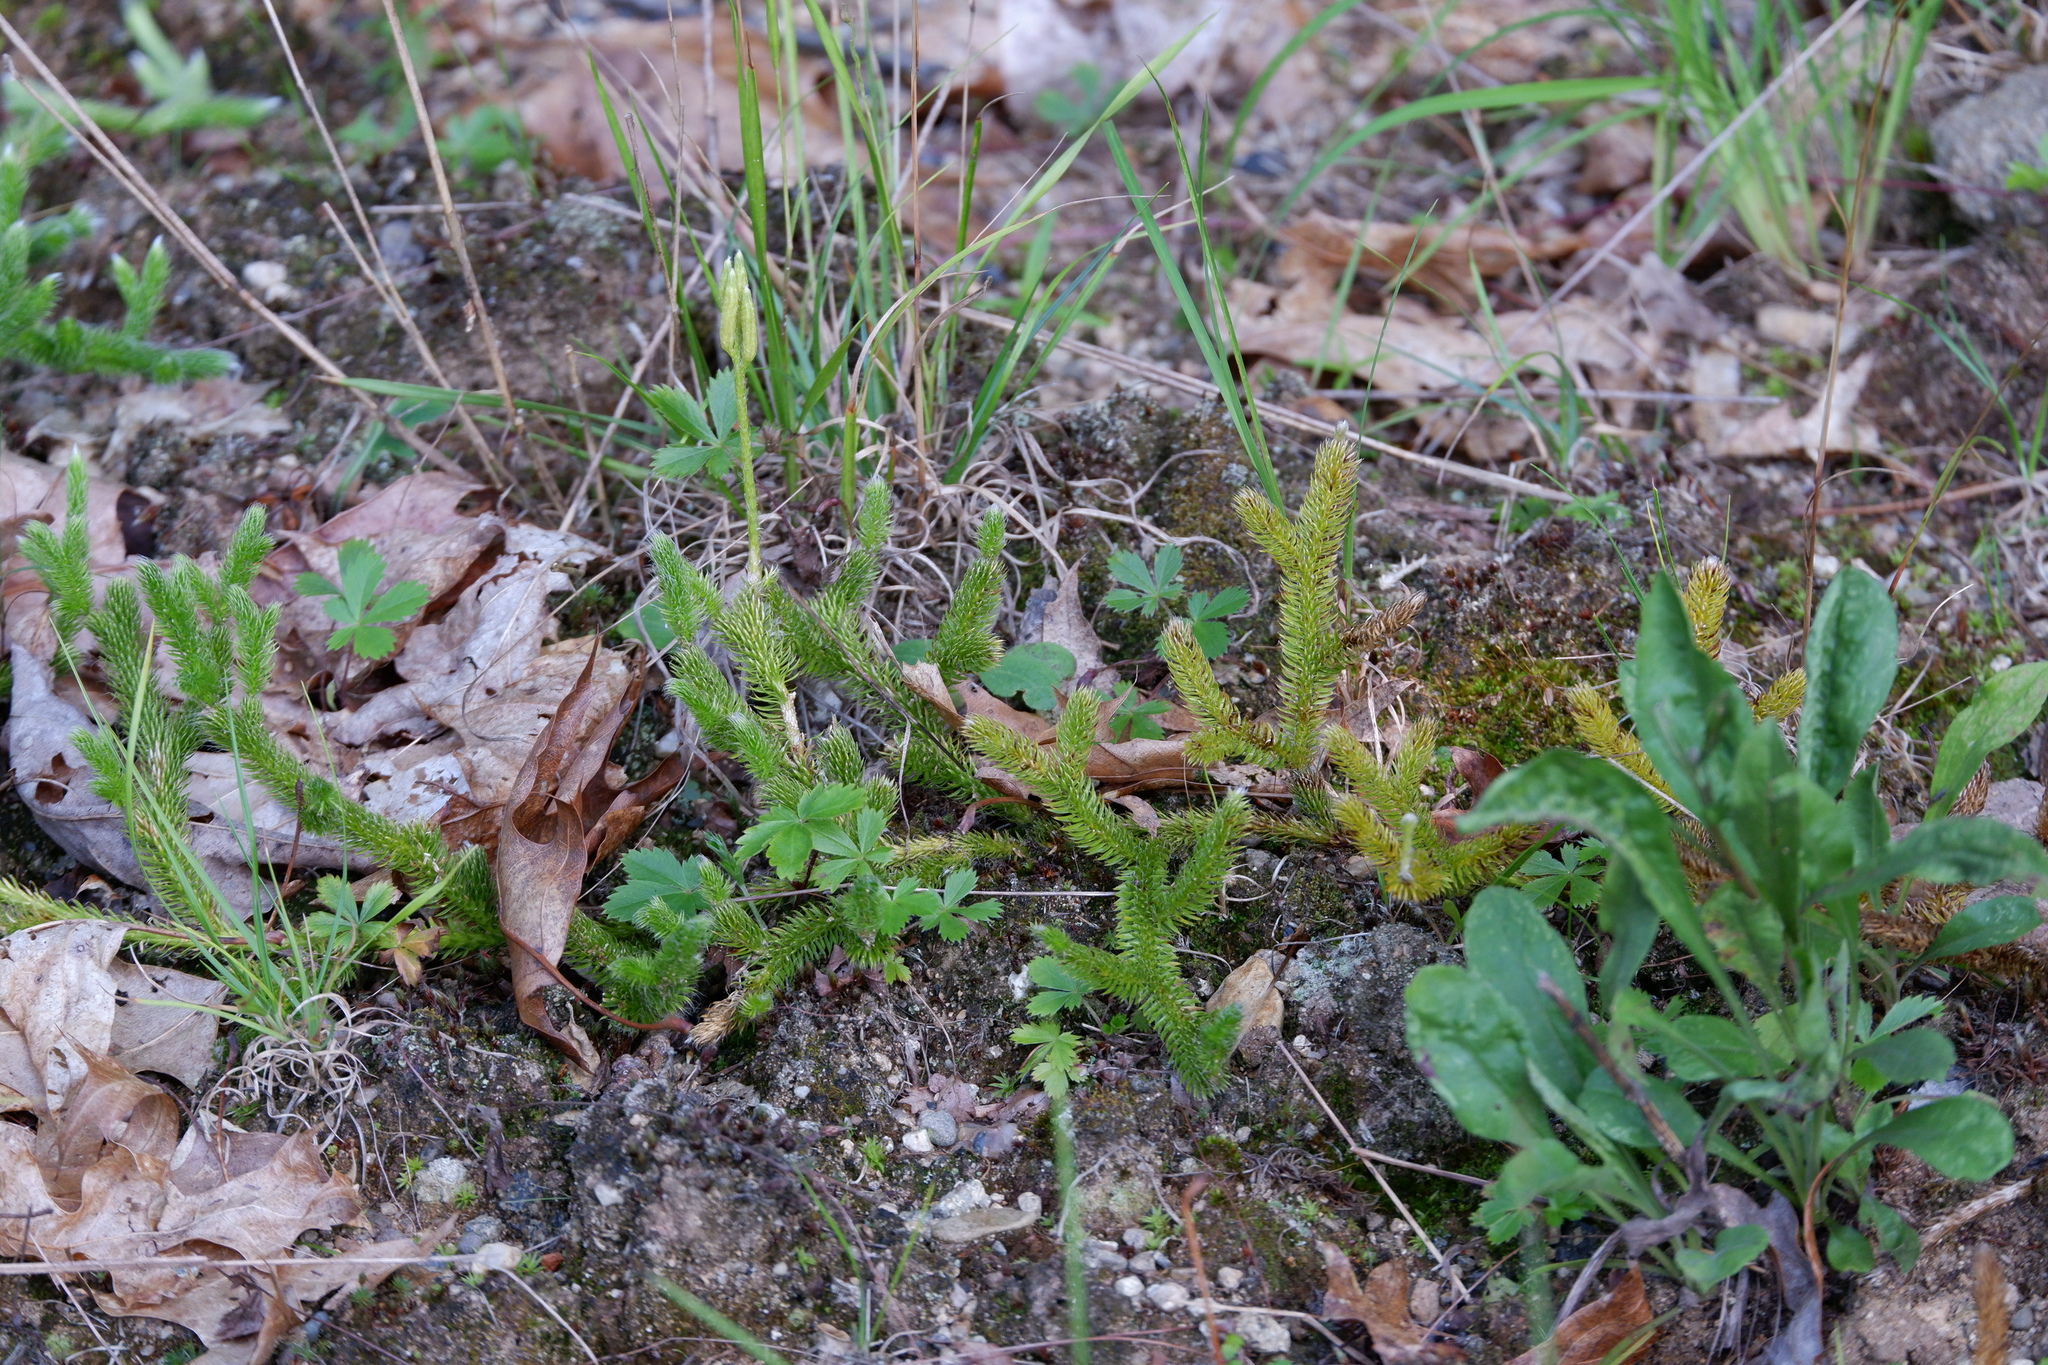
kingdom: Plantae
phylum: Tracheophyta
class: Lycopodiopsida
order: Lycopodiales
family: Lycopodiaceae
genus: Lycopodium
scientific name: Lycopodium clavatum
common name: Stag's-horn clubmoss
